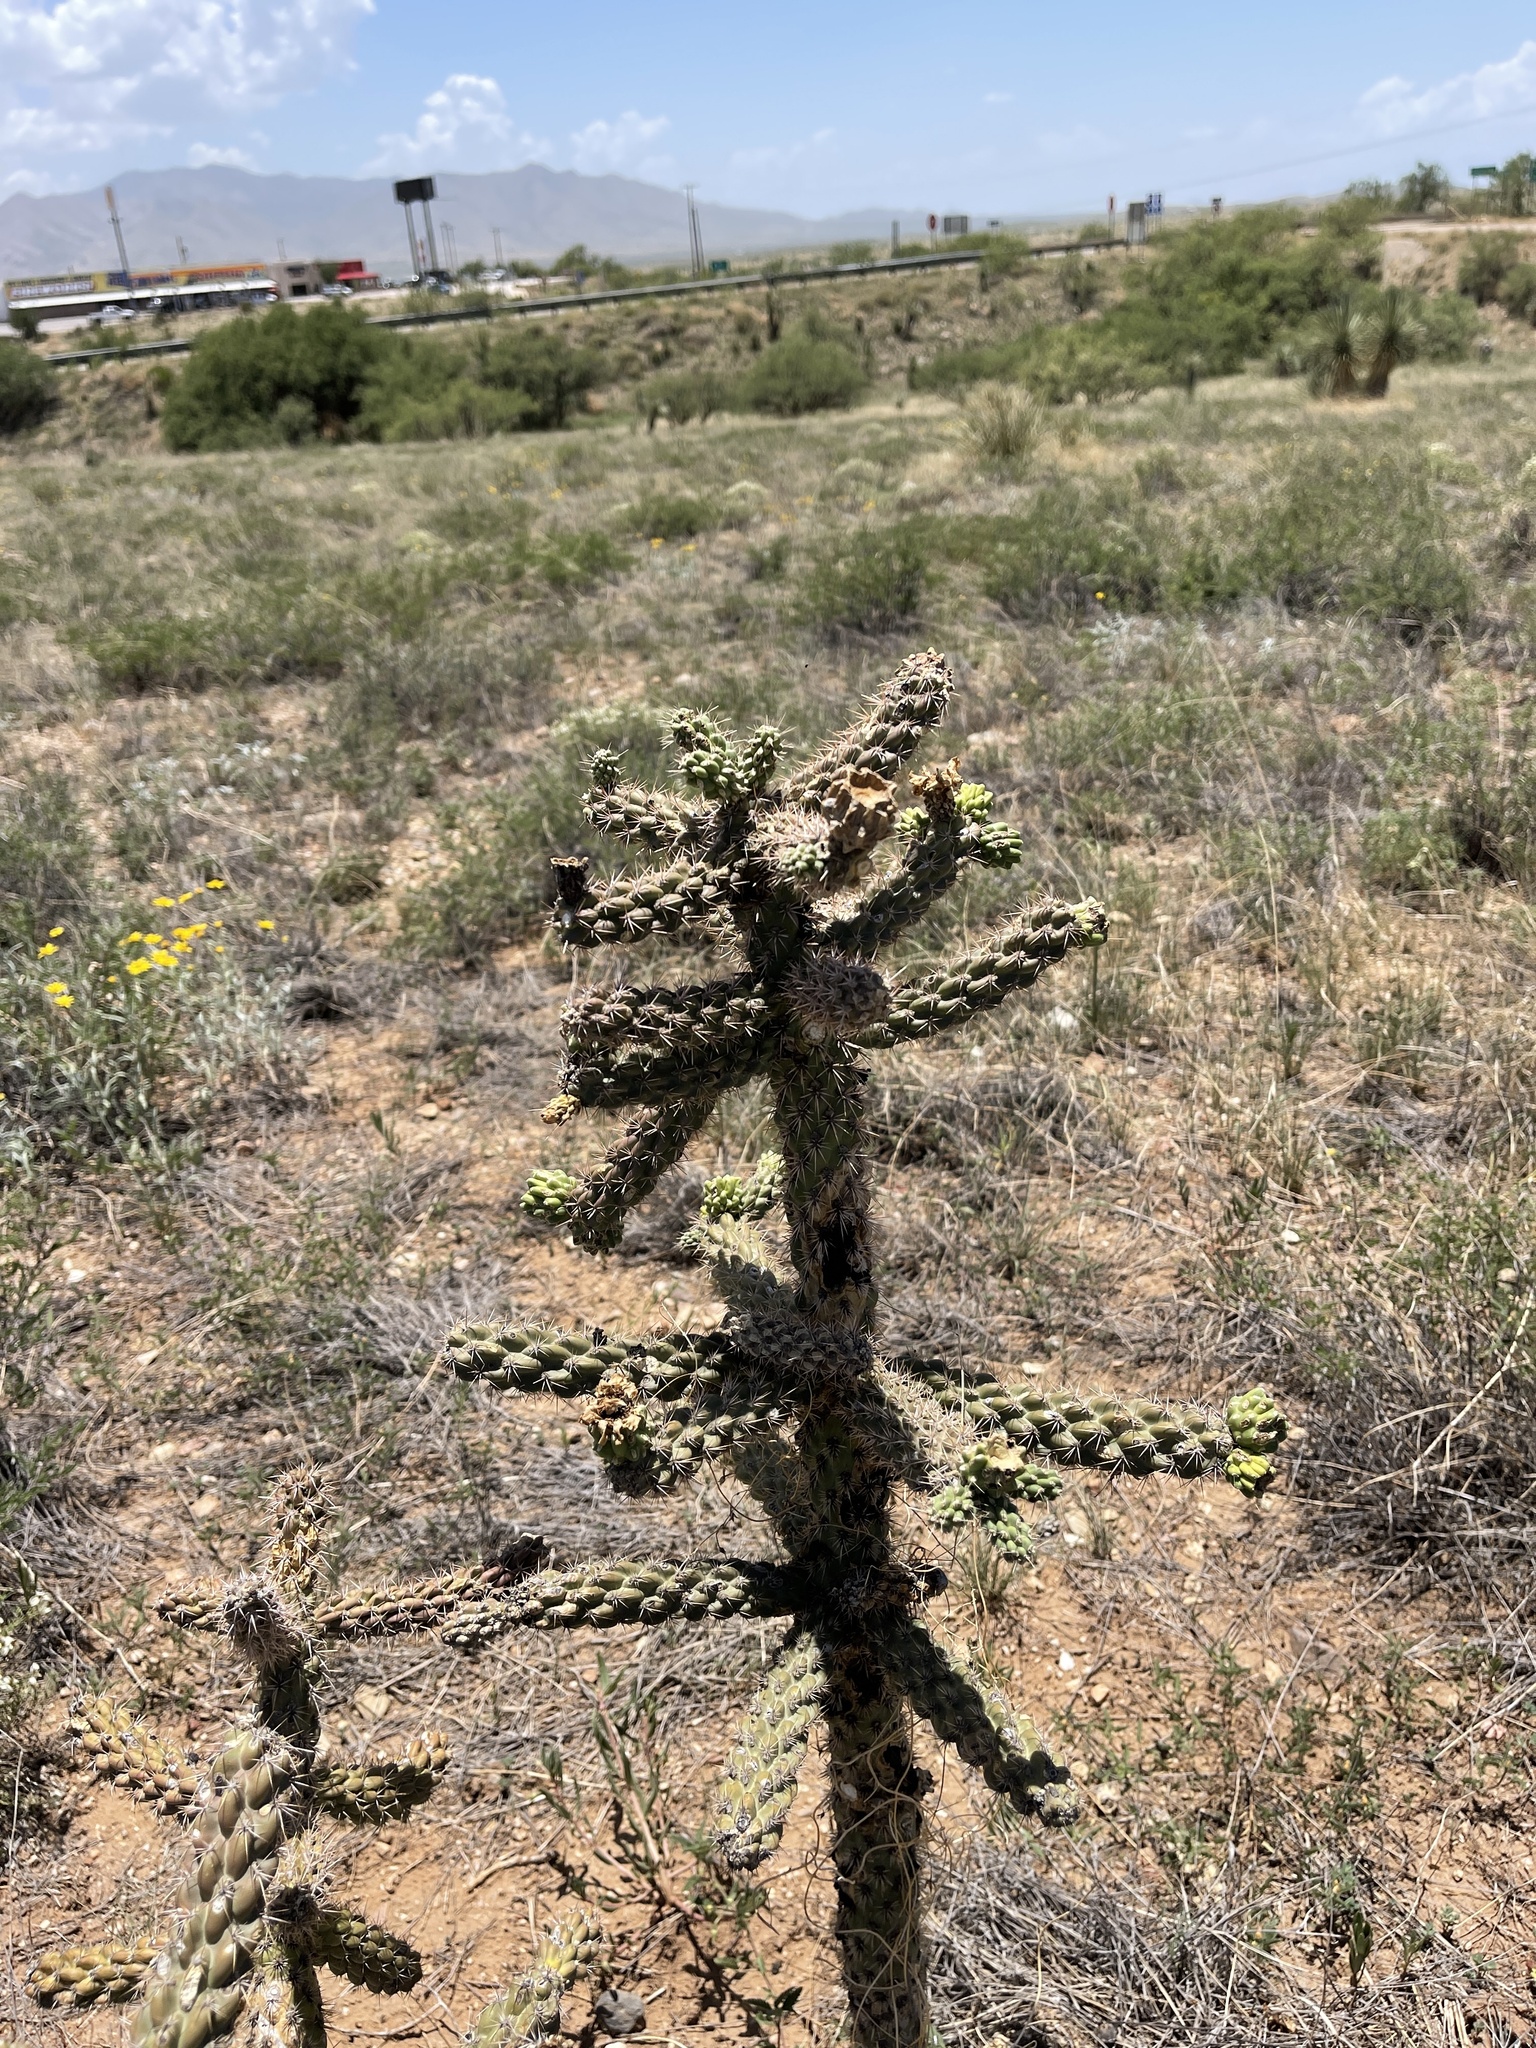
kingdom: Plantae
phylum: Tracheophyta
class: Magnoliopsida
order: Caryophyllales
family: Cactaceae
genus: Cylindropuntia
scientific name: Cylindropuntia imbricata
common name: Candelabrum cactus
